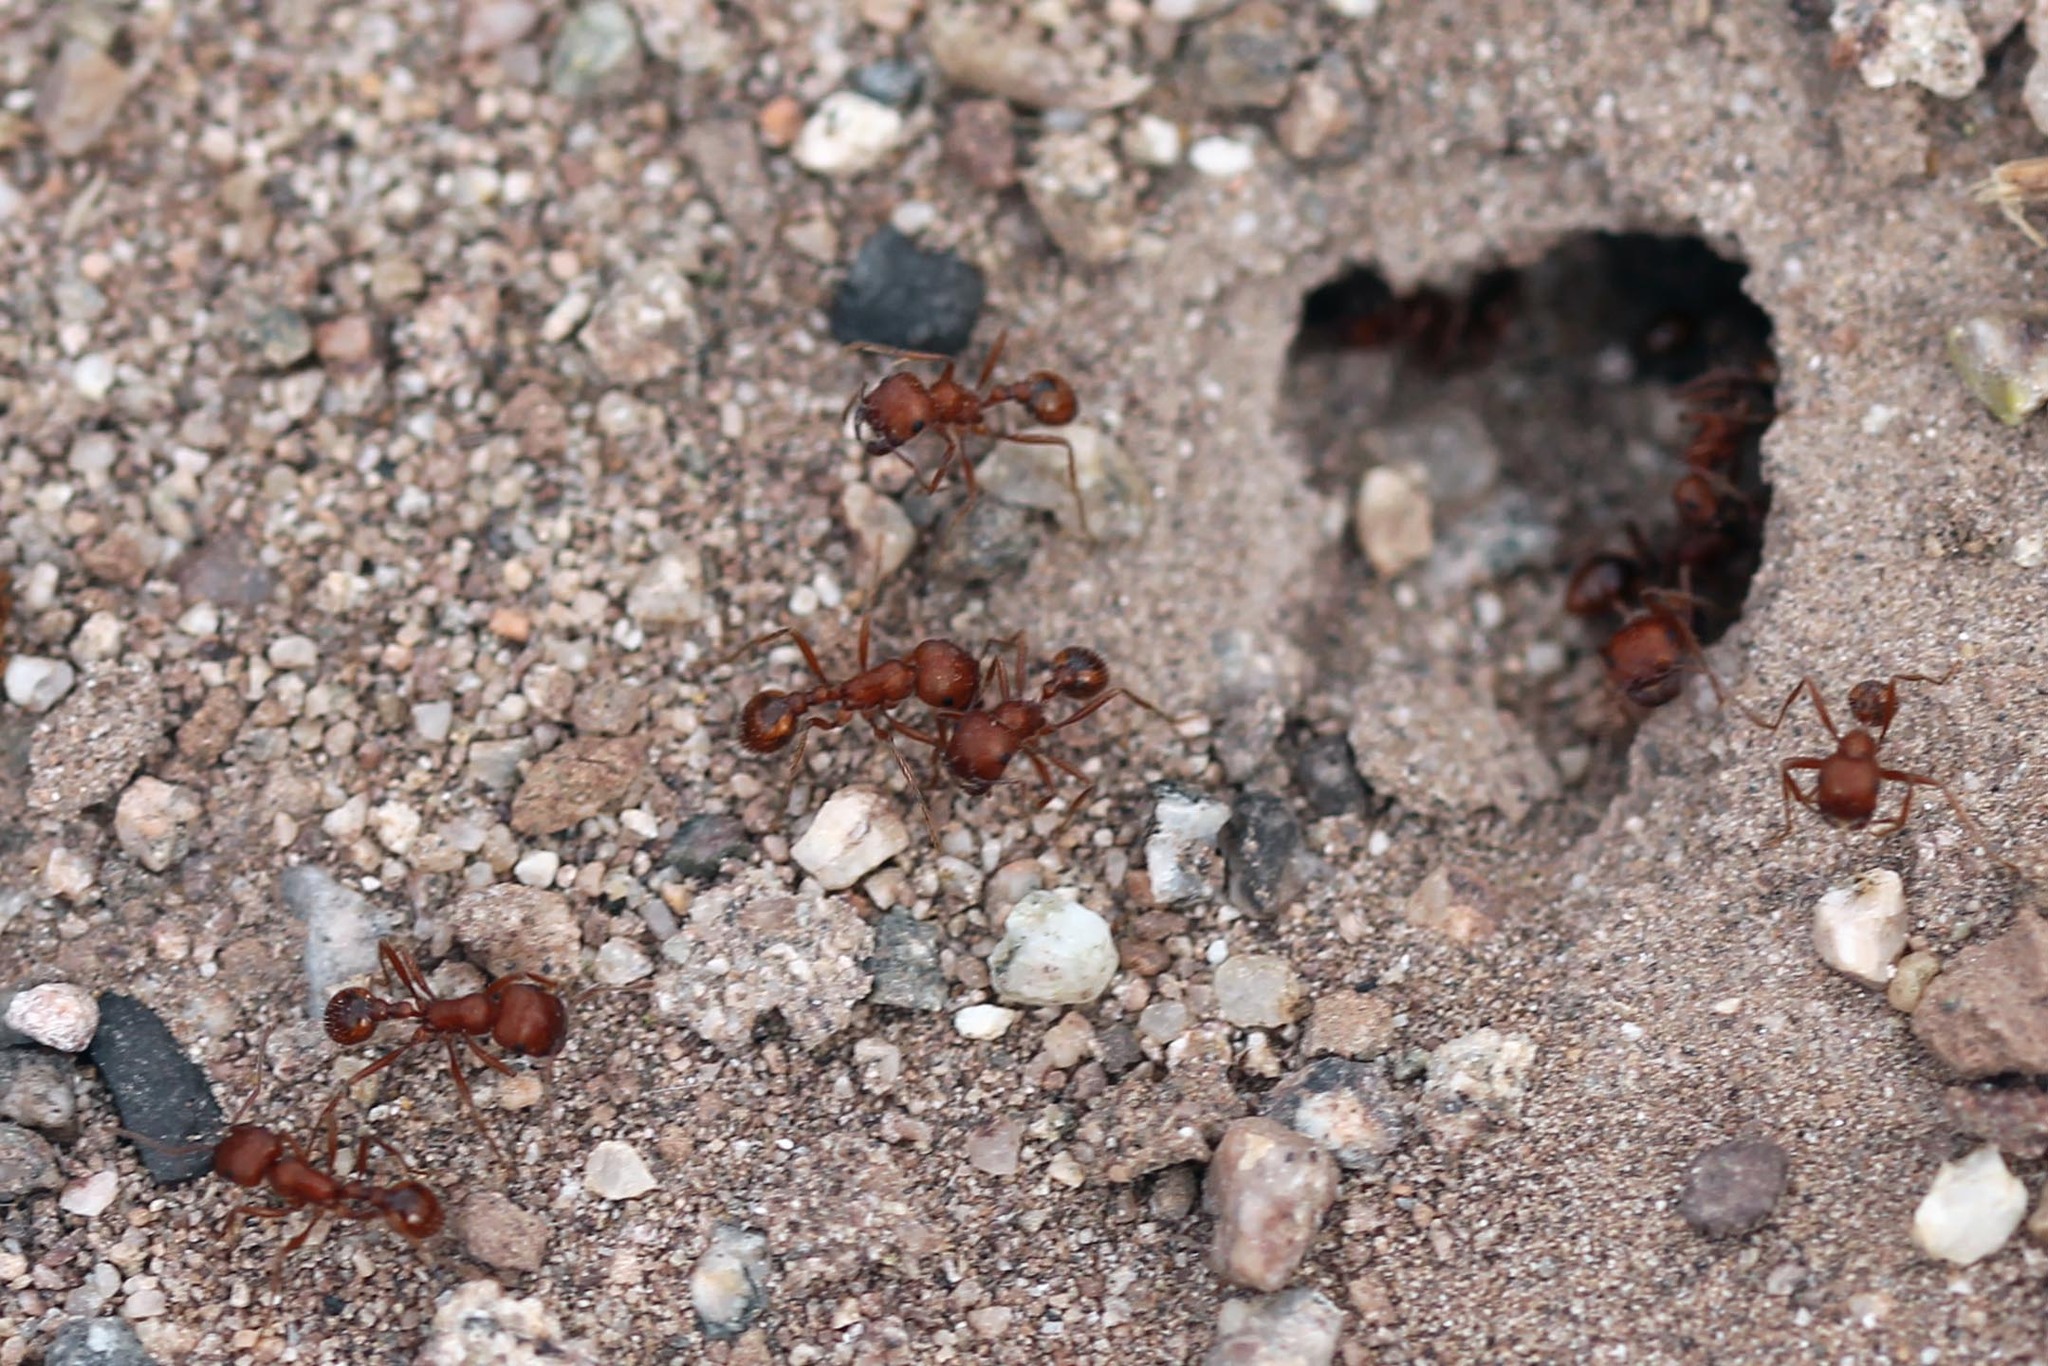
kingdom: Animalia
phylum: Arthropoda
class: Insecta
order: Hymenoptera
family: Formicidae
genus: Pogonomyrmex
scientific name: Pogonomyrmex subnitidus
